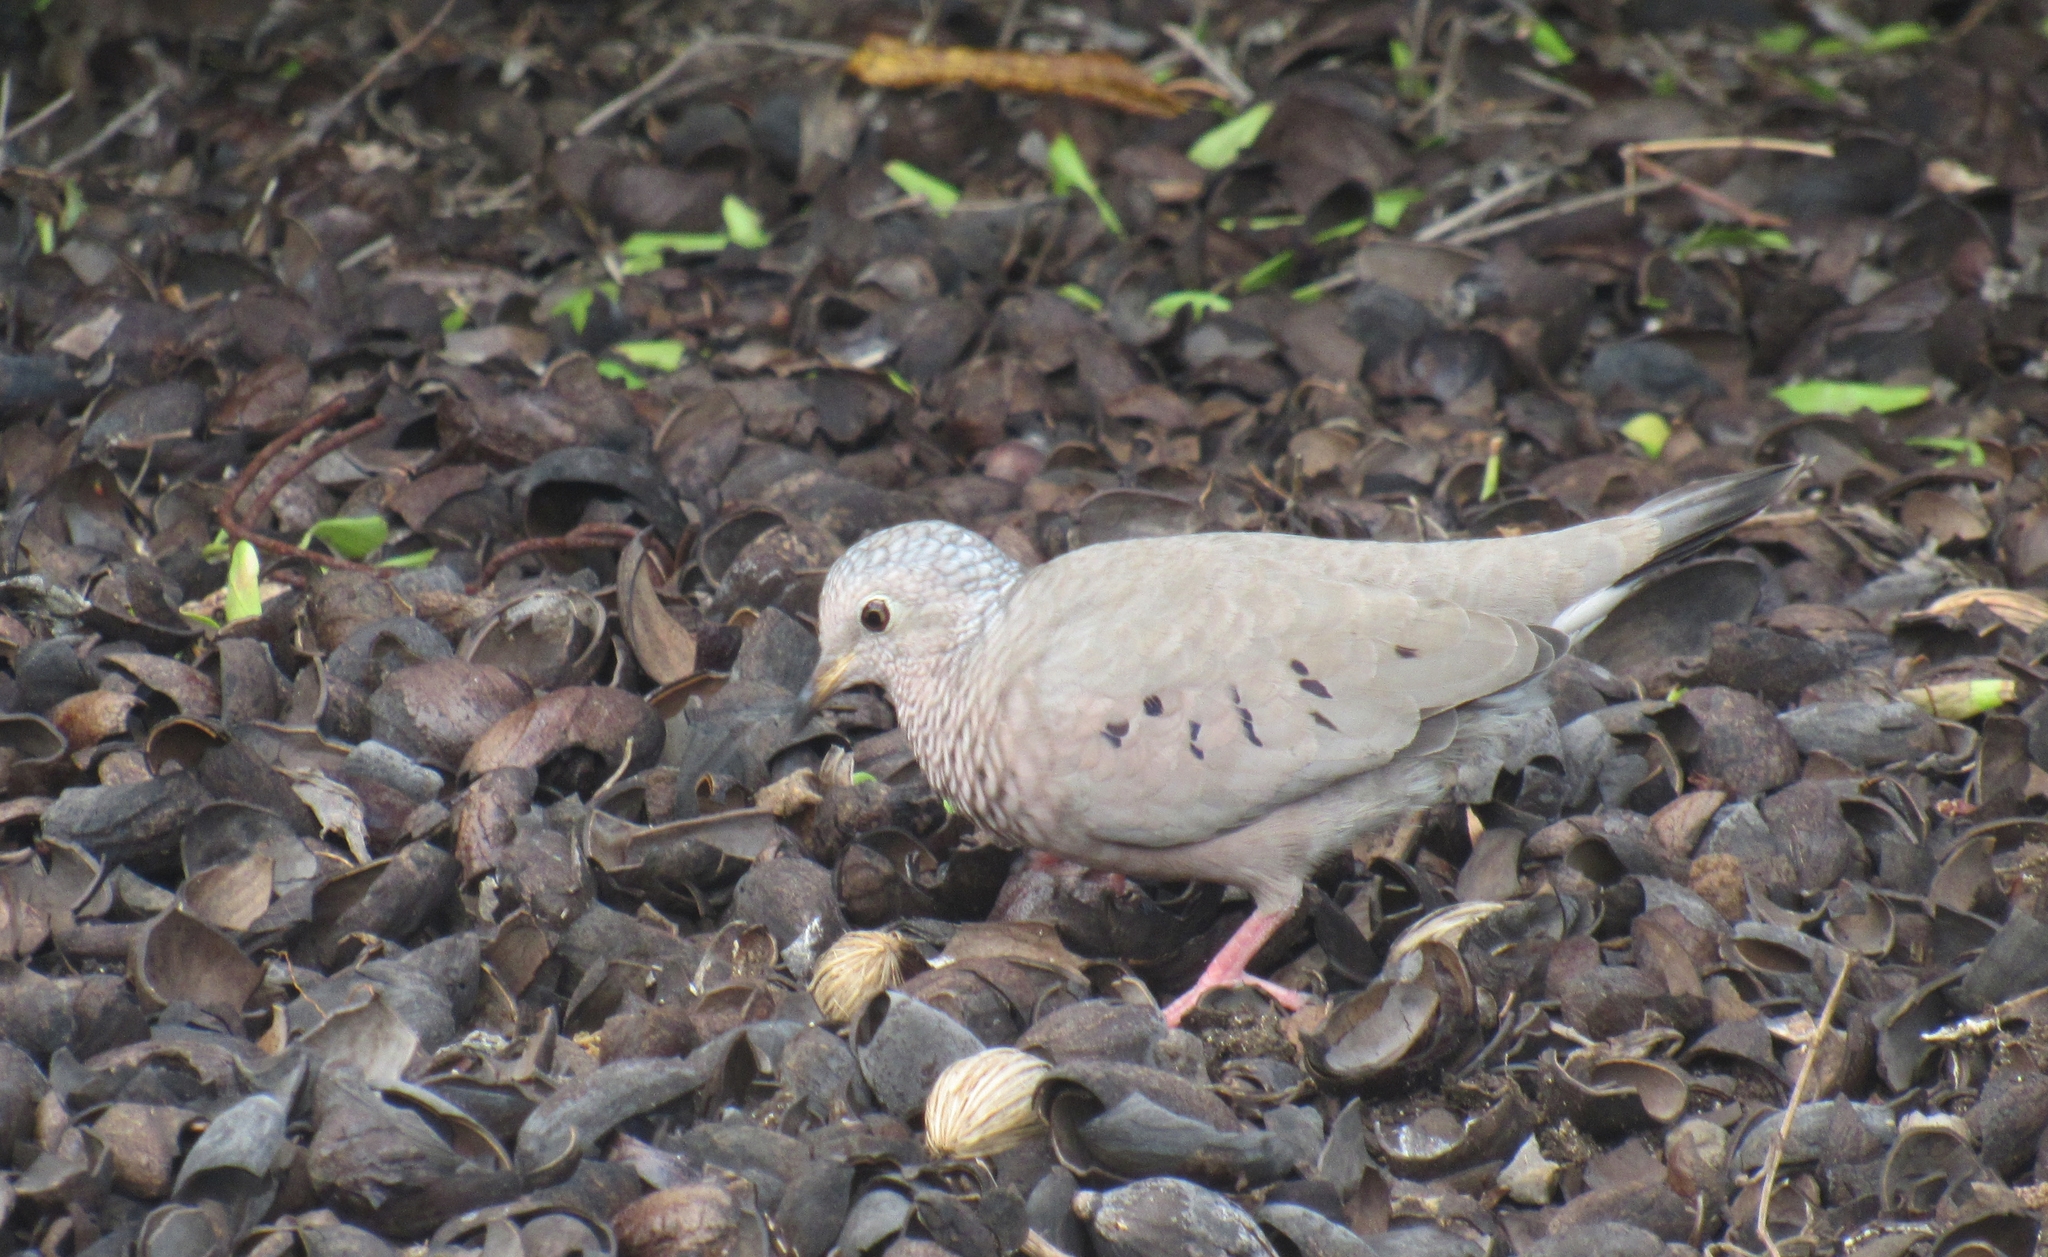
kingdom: Animalia
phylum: Chordata
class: Aves
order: Columbiformes
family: Columbidae
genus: Columbina
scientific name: Columbina passerina
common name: Common ground-dove
